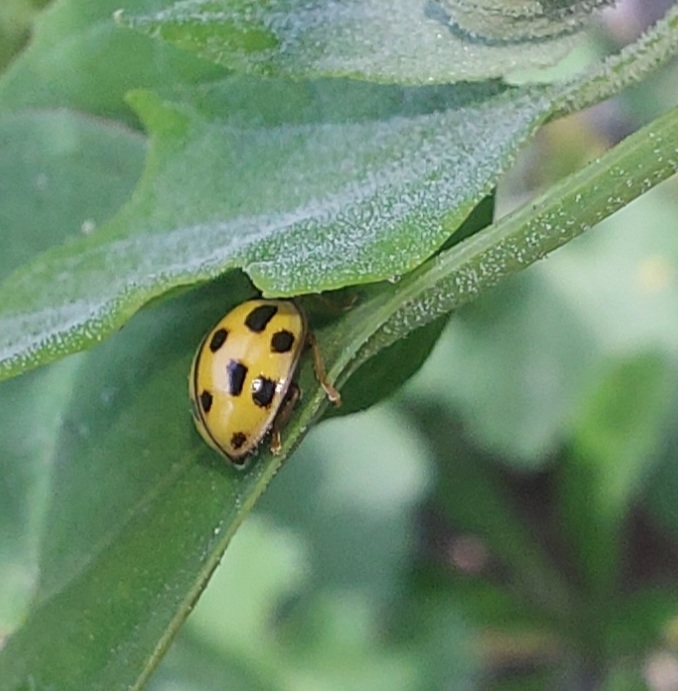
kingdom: Animalia
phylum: Arthropoda
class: Insecta
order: Coleoptera
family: Coccinellidae
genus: Propylaea
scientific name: Propylaea quatuordecimpunctata
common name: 14-spotted ladybird beetle
